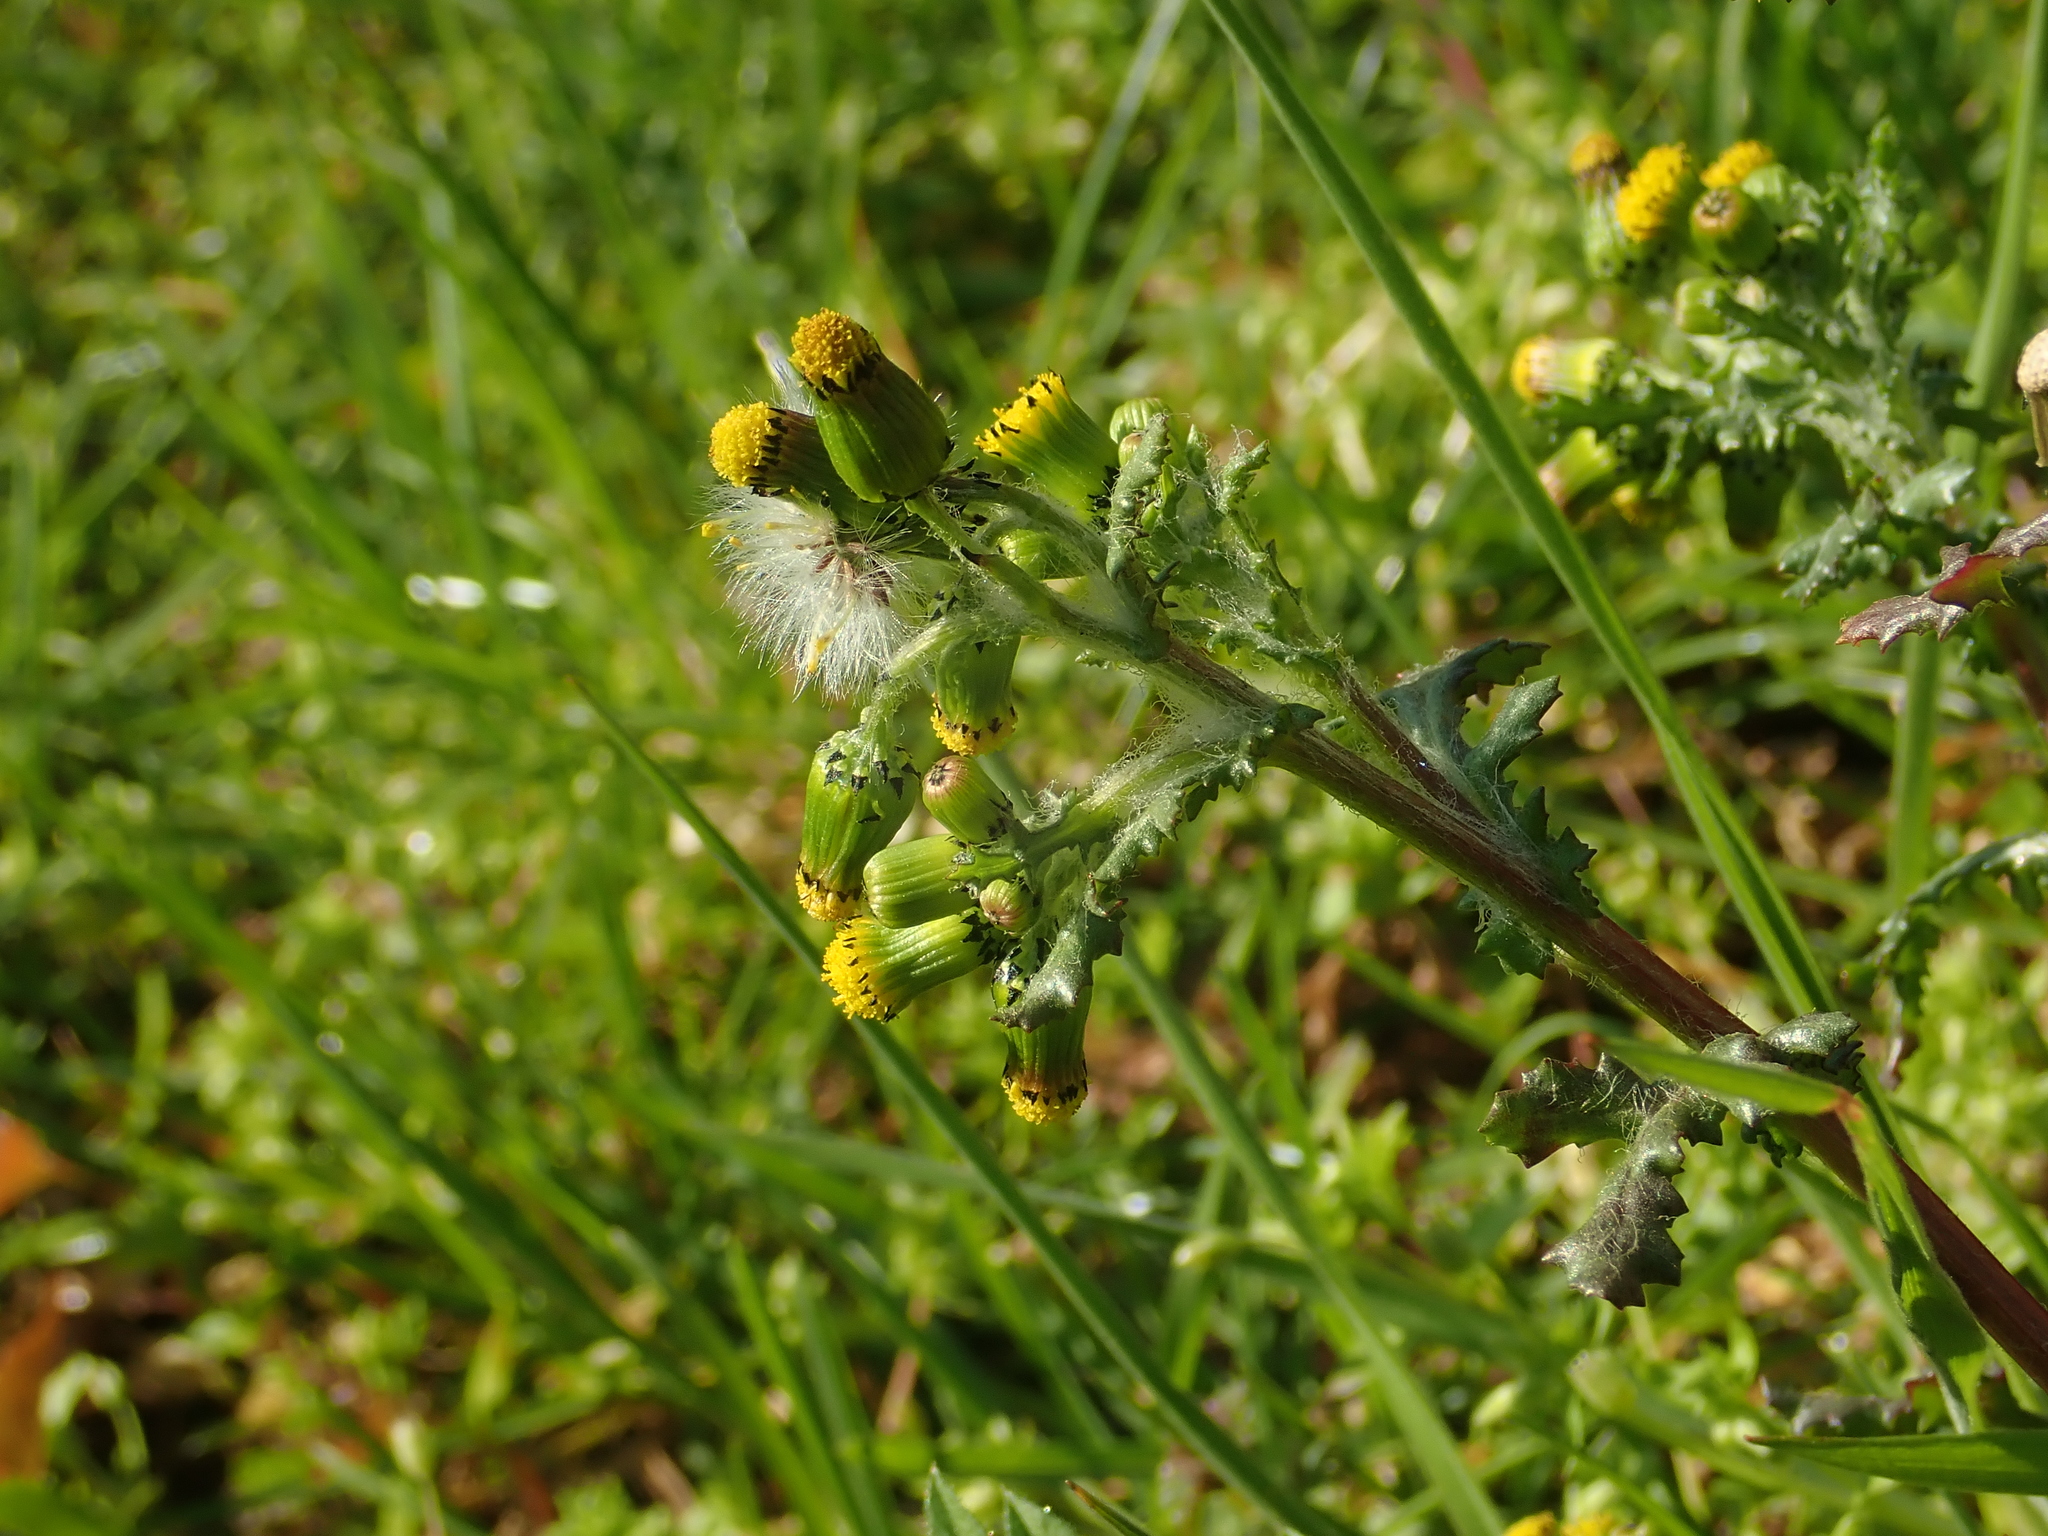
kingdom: Plantae
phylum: Tracheophyta
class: Magnoliopsida
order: Asterales
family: Asteraceae
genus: Senecio
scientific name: Senecio vulgaris
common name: Old-man-in-the-spring
